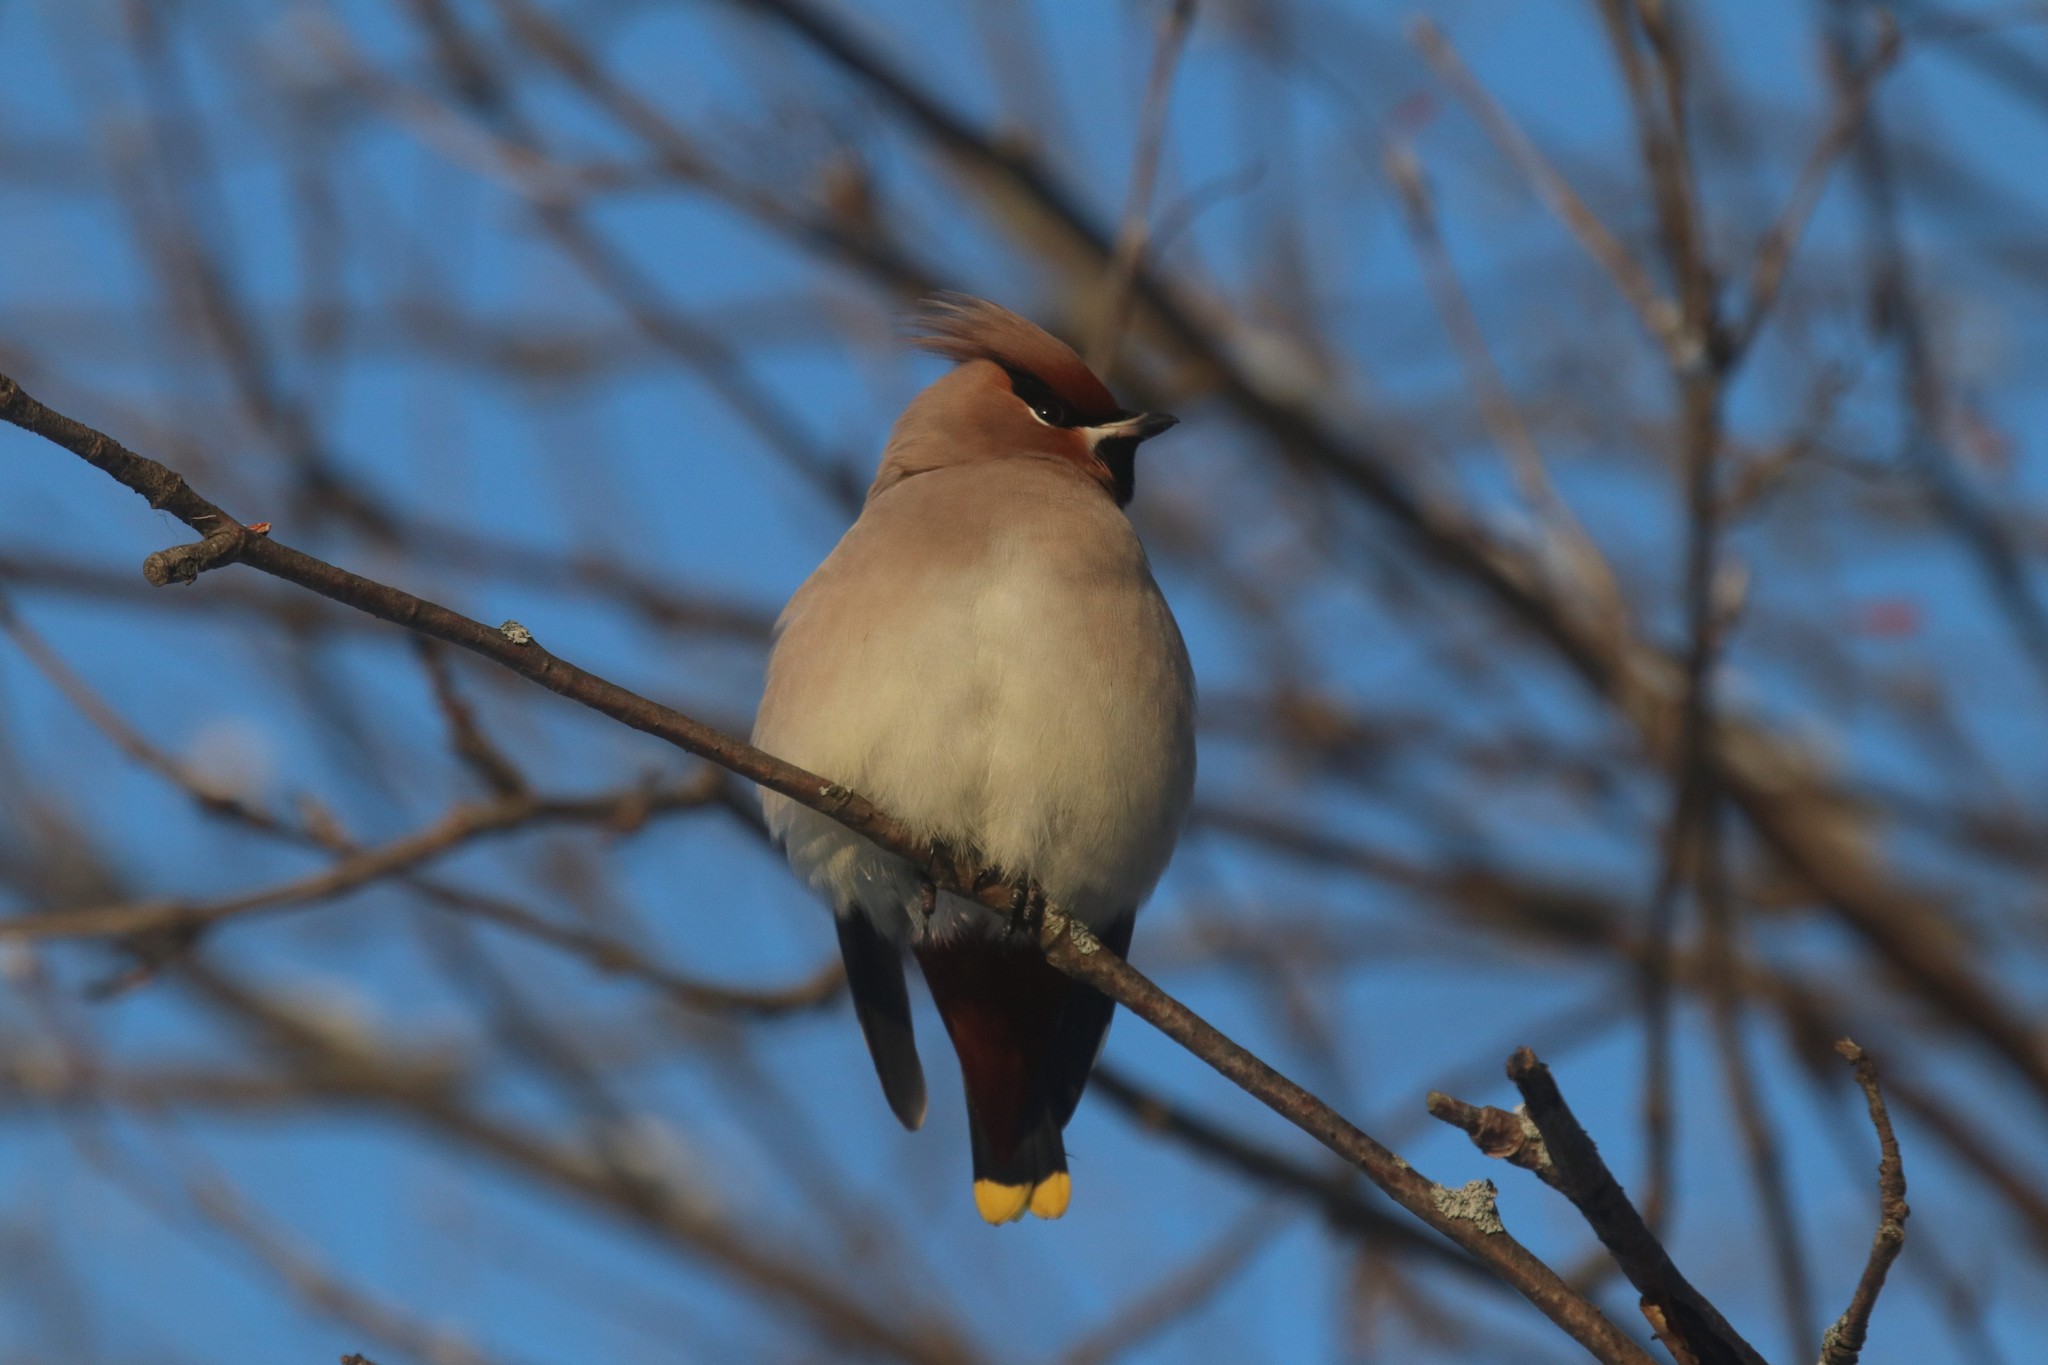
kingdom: Animalia
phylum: Chordata
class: Aves
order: Passeriformes
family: Bombycillidae
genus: Bombycilla
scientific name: Bombycilla garrulus
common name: Bohemian waxwing
